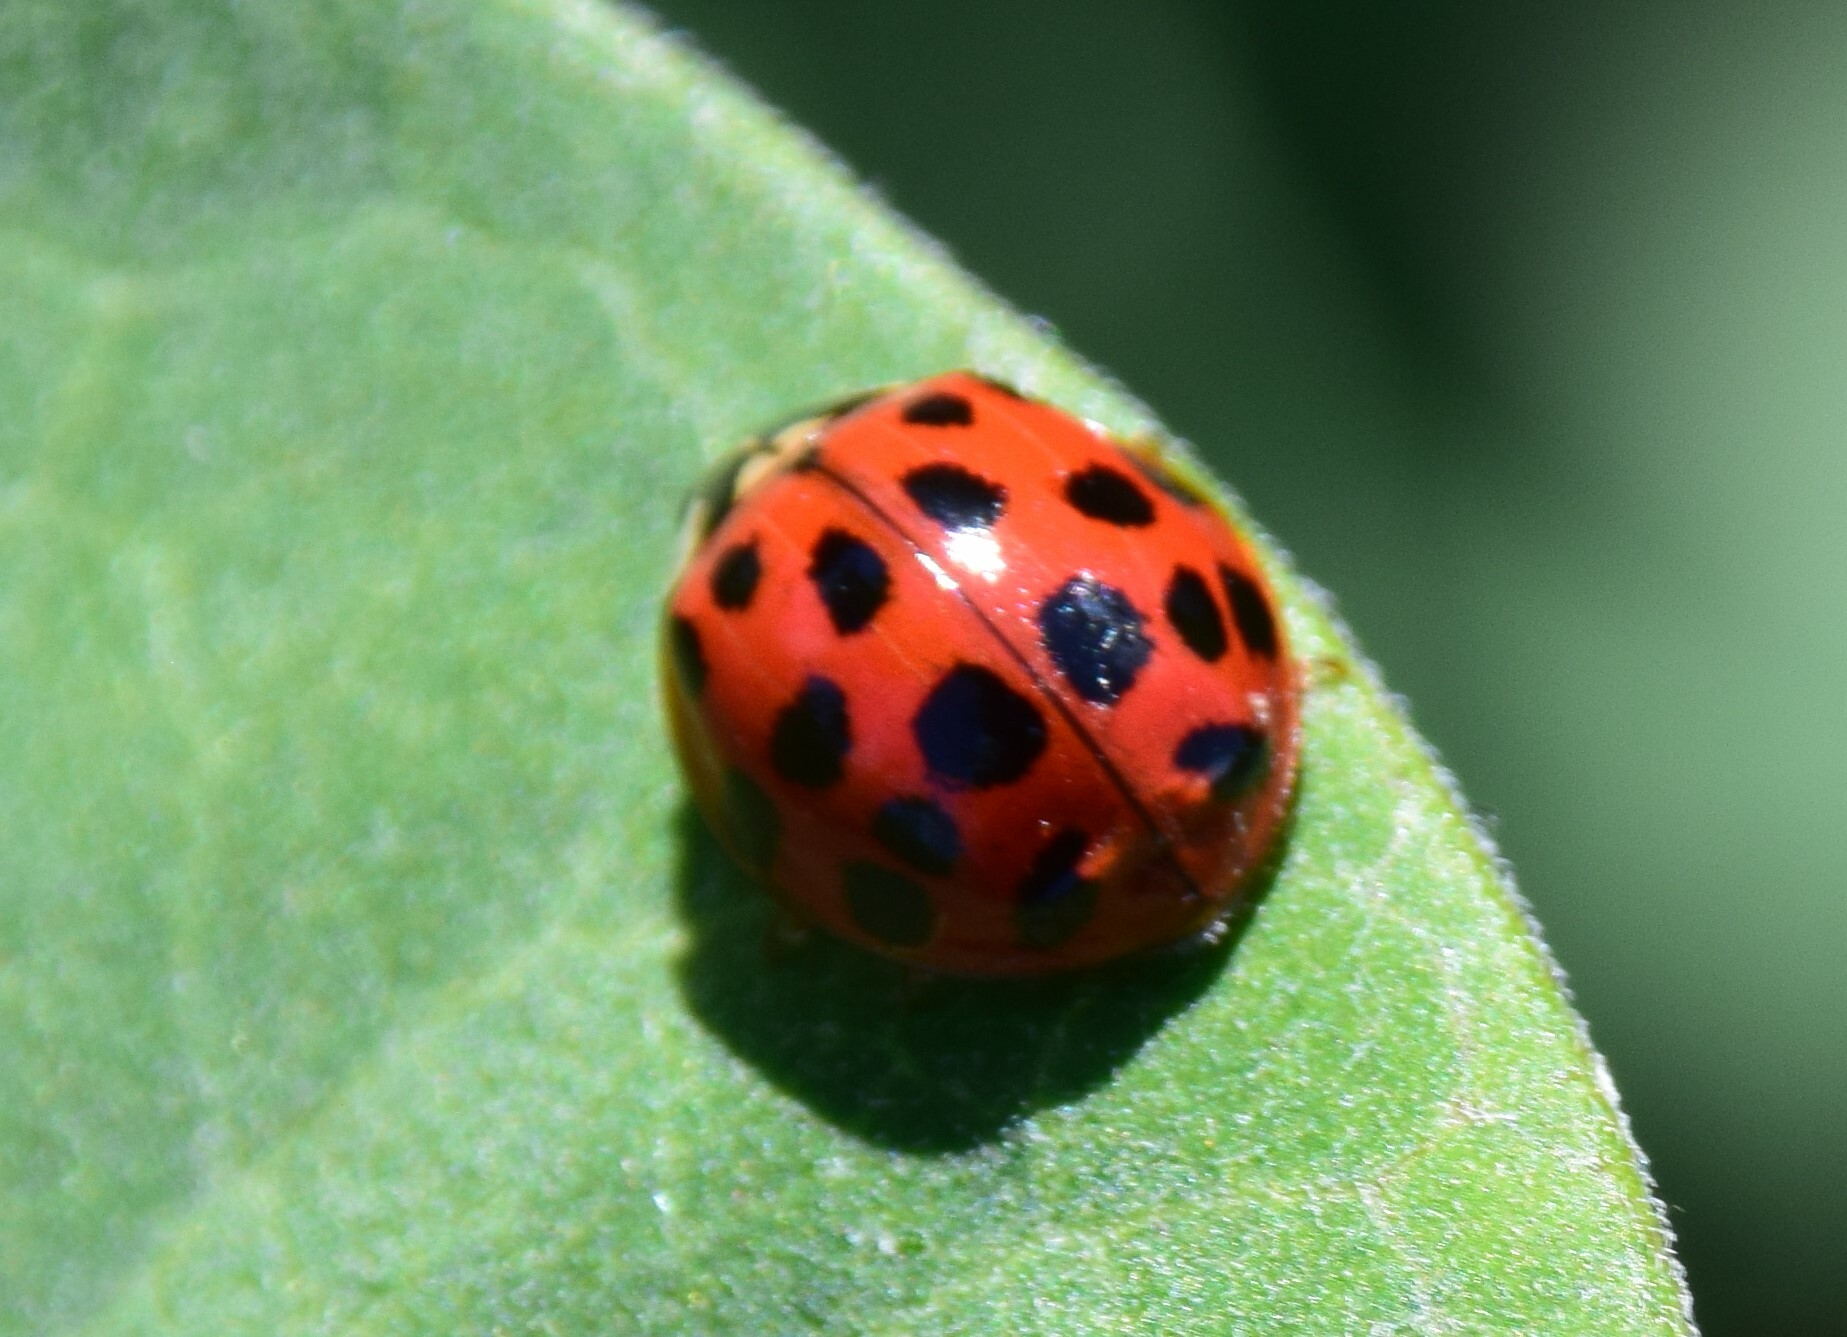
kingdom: Animalia
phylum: Arthropoda
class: Insecta
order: Coleoptera
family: Coccinellidae
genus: Harmonia
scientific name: Harmonia axyridis
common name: Harlequin ladybird
